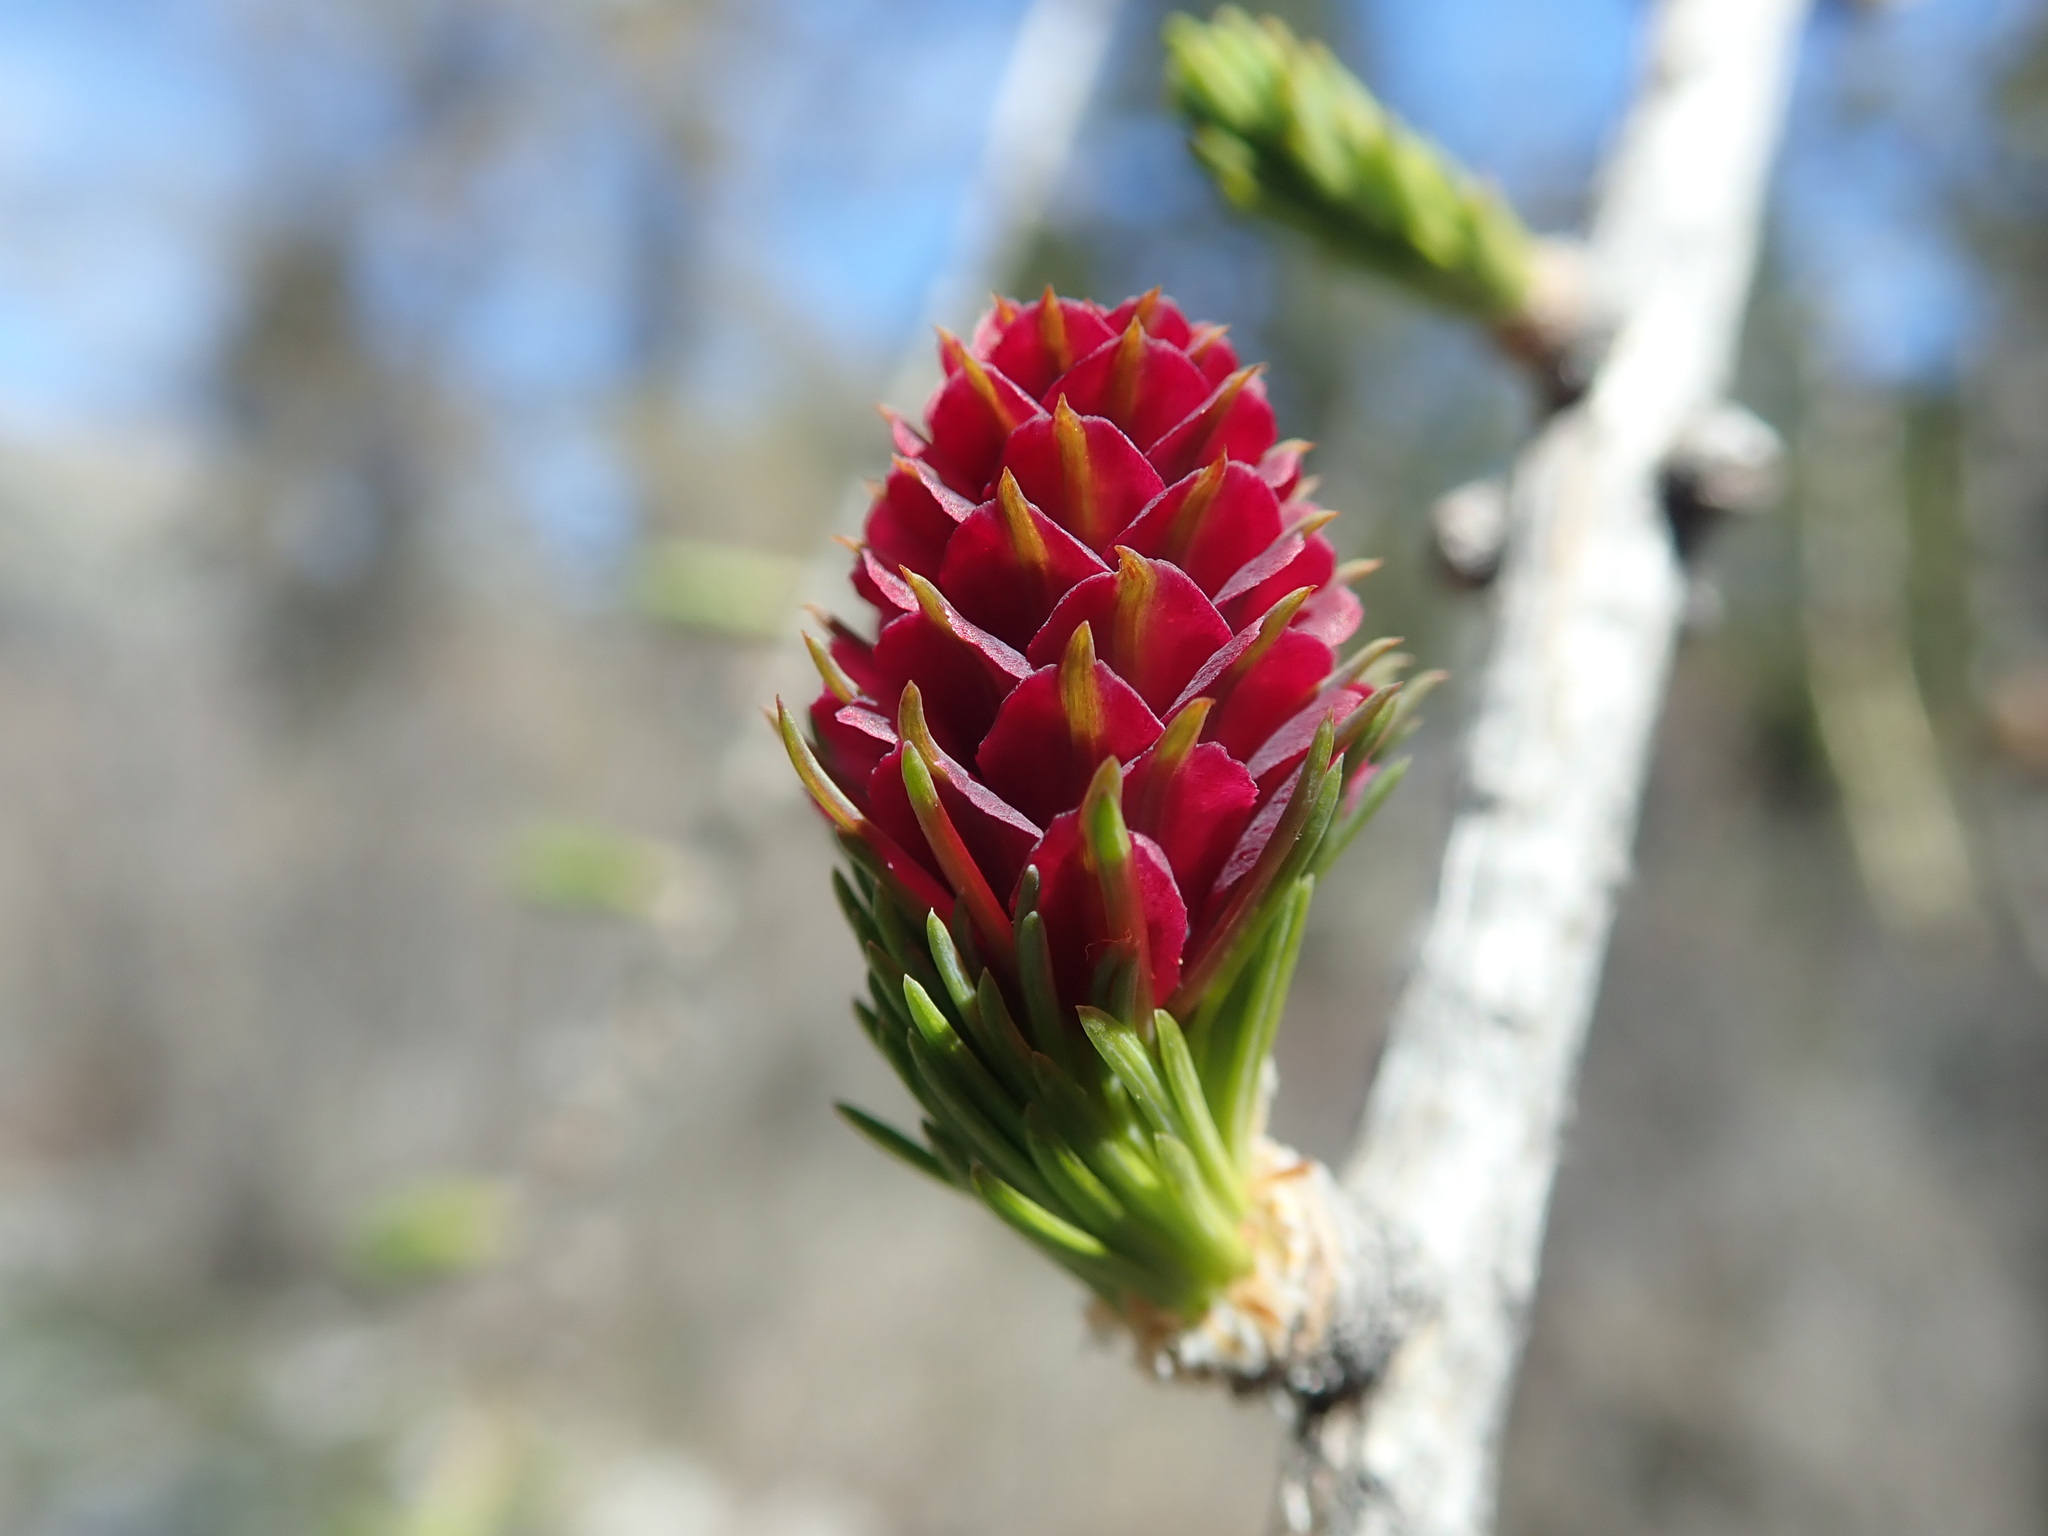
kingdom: Plantae
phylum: Tracheophyta
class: Pinopsida
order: Pinales
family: Pinaceae
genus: Larix
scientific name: Larix decidua
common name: European larch
